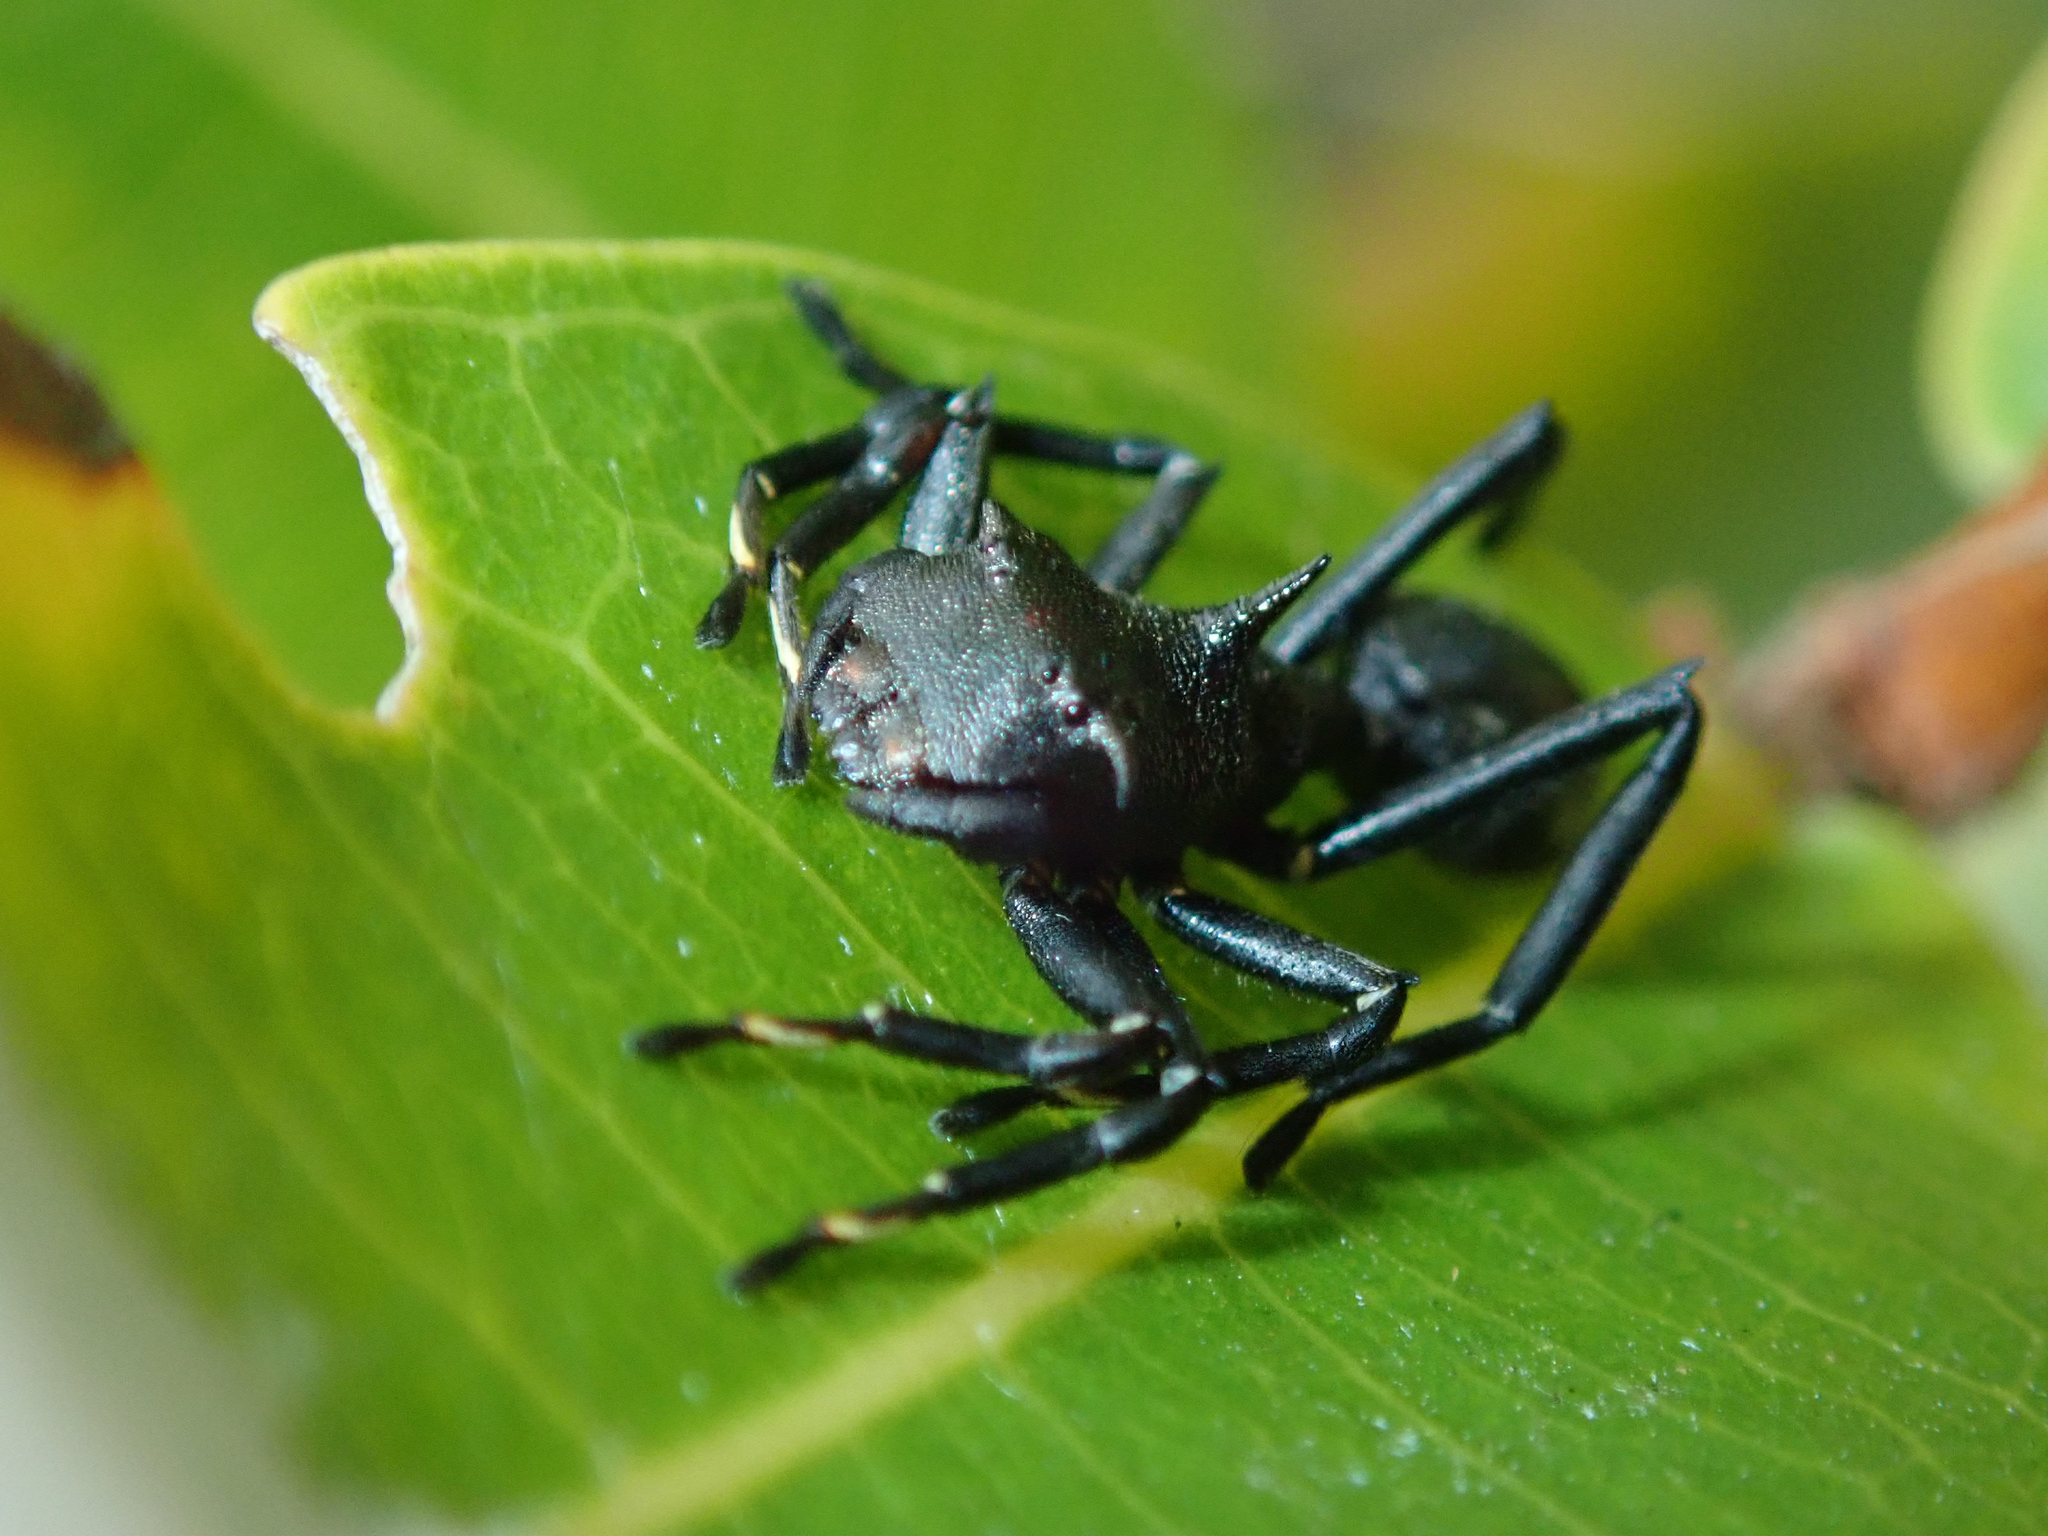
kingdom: Animalia
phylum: Arthropoda
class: Arachnida
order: Araneae
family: Thomisidae
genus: Aphantochilus
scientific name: Aphantochilus rogersi
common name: Crab spiders
